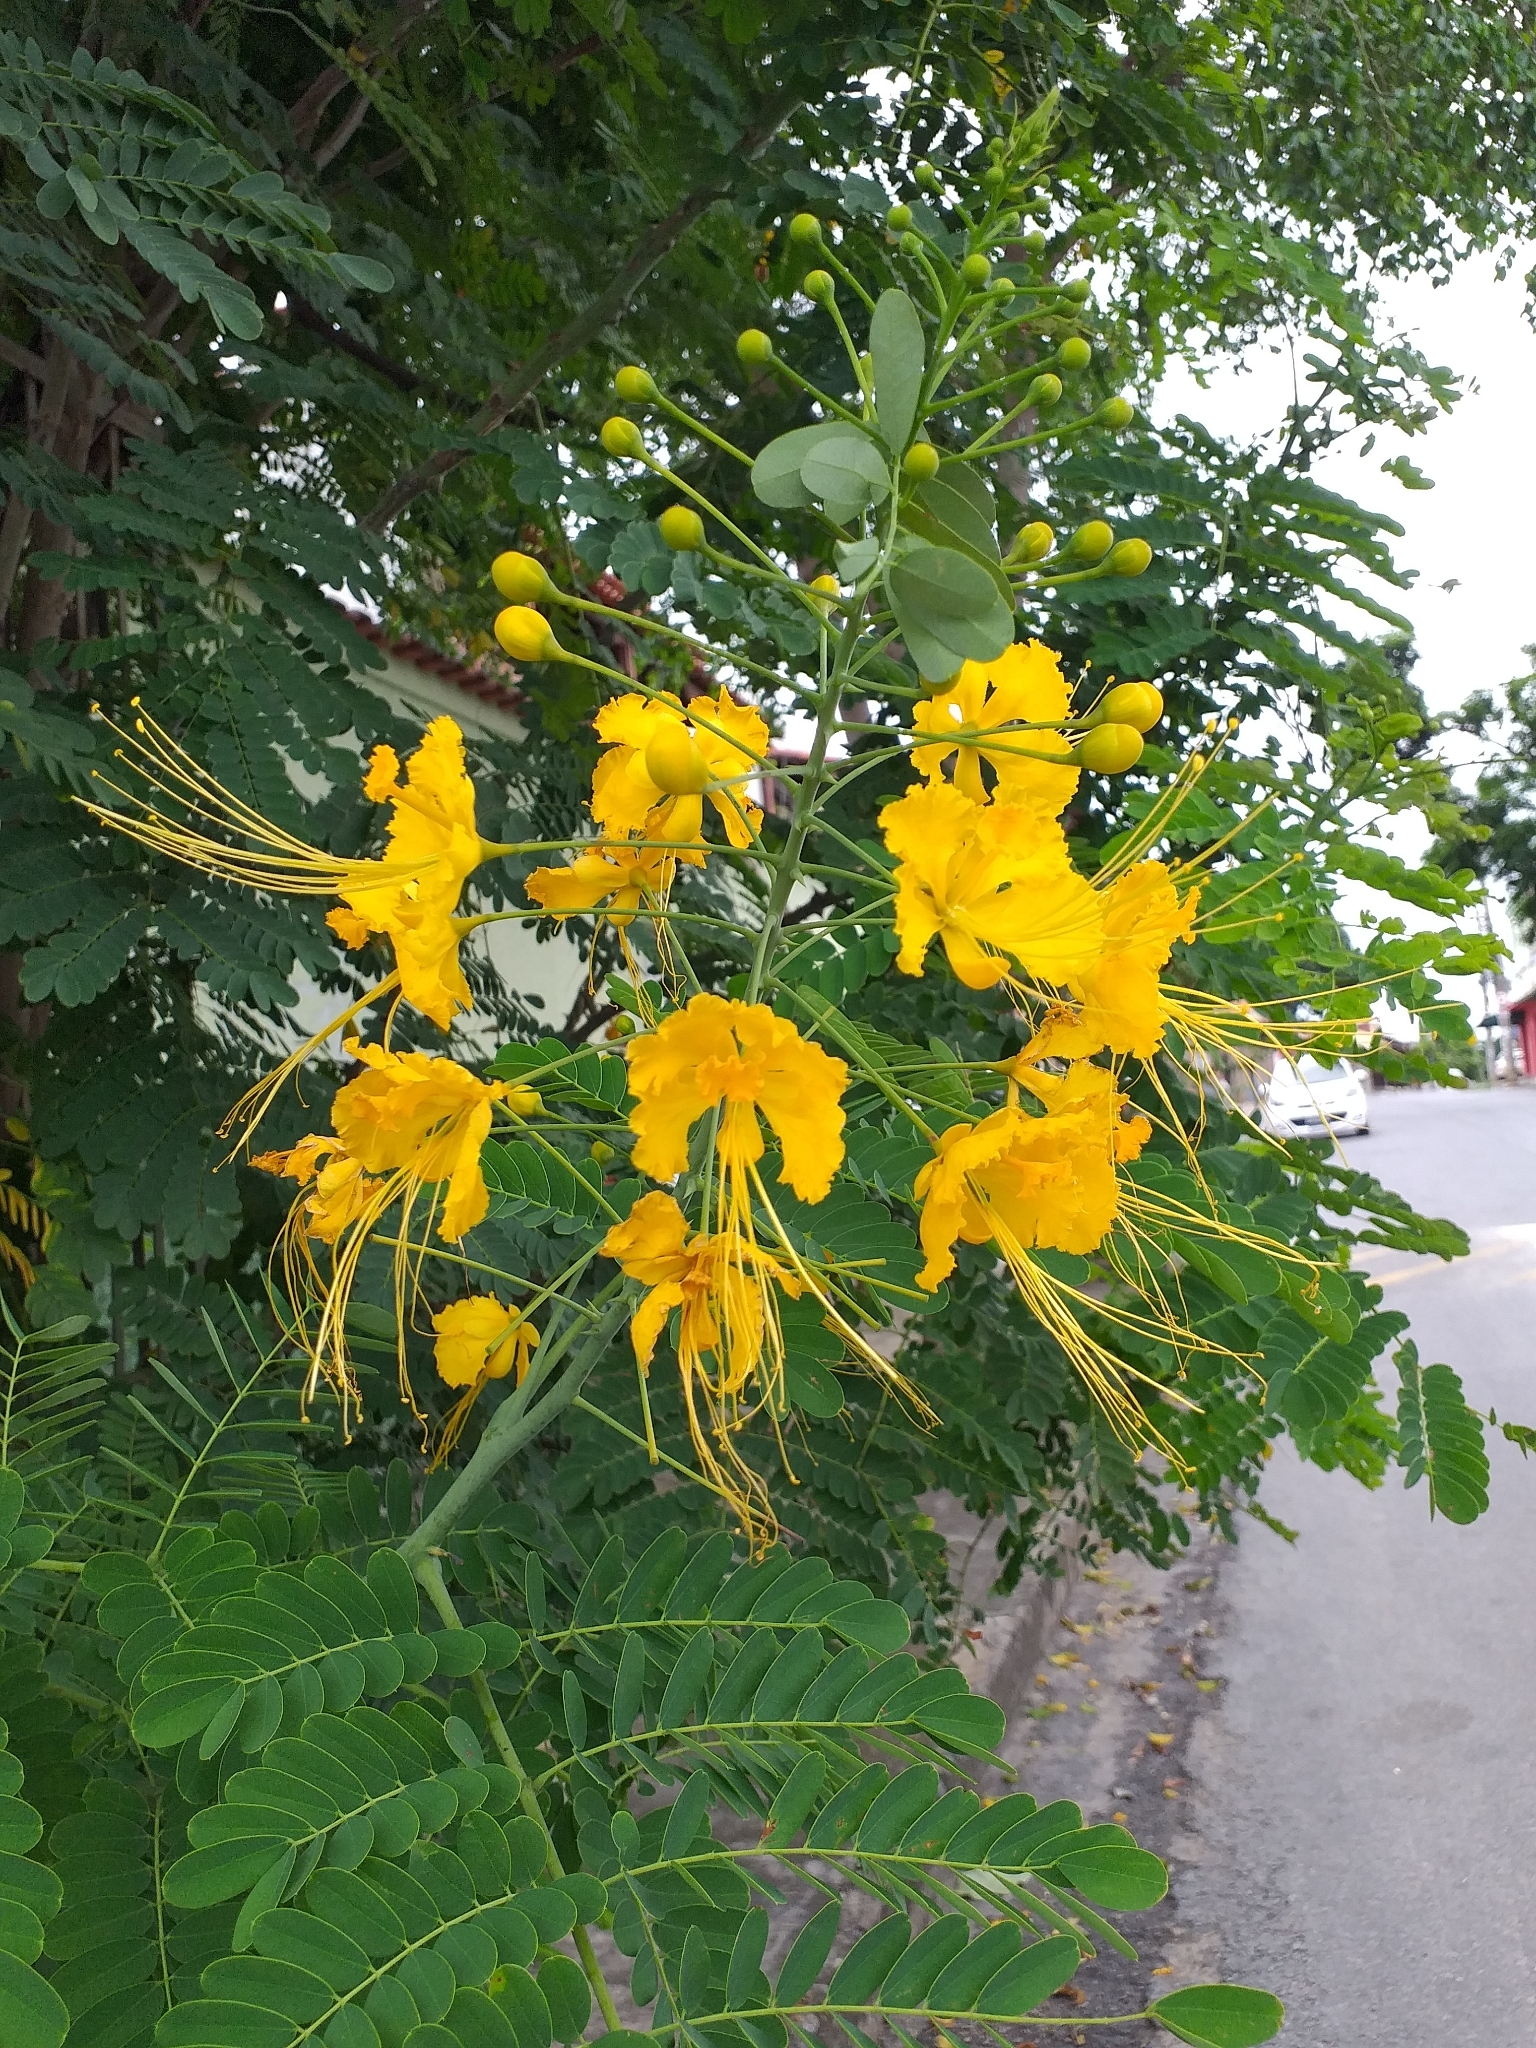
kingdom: Plantae
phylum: Tracheophyta
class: Magnoliopsida
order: Fabales
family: Fabaceae
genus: Caesalpinia
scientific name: Caesalpinia pulcherrima
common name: Pride-of-barbados
